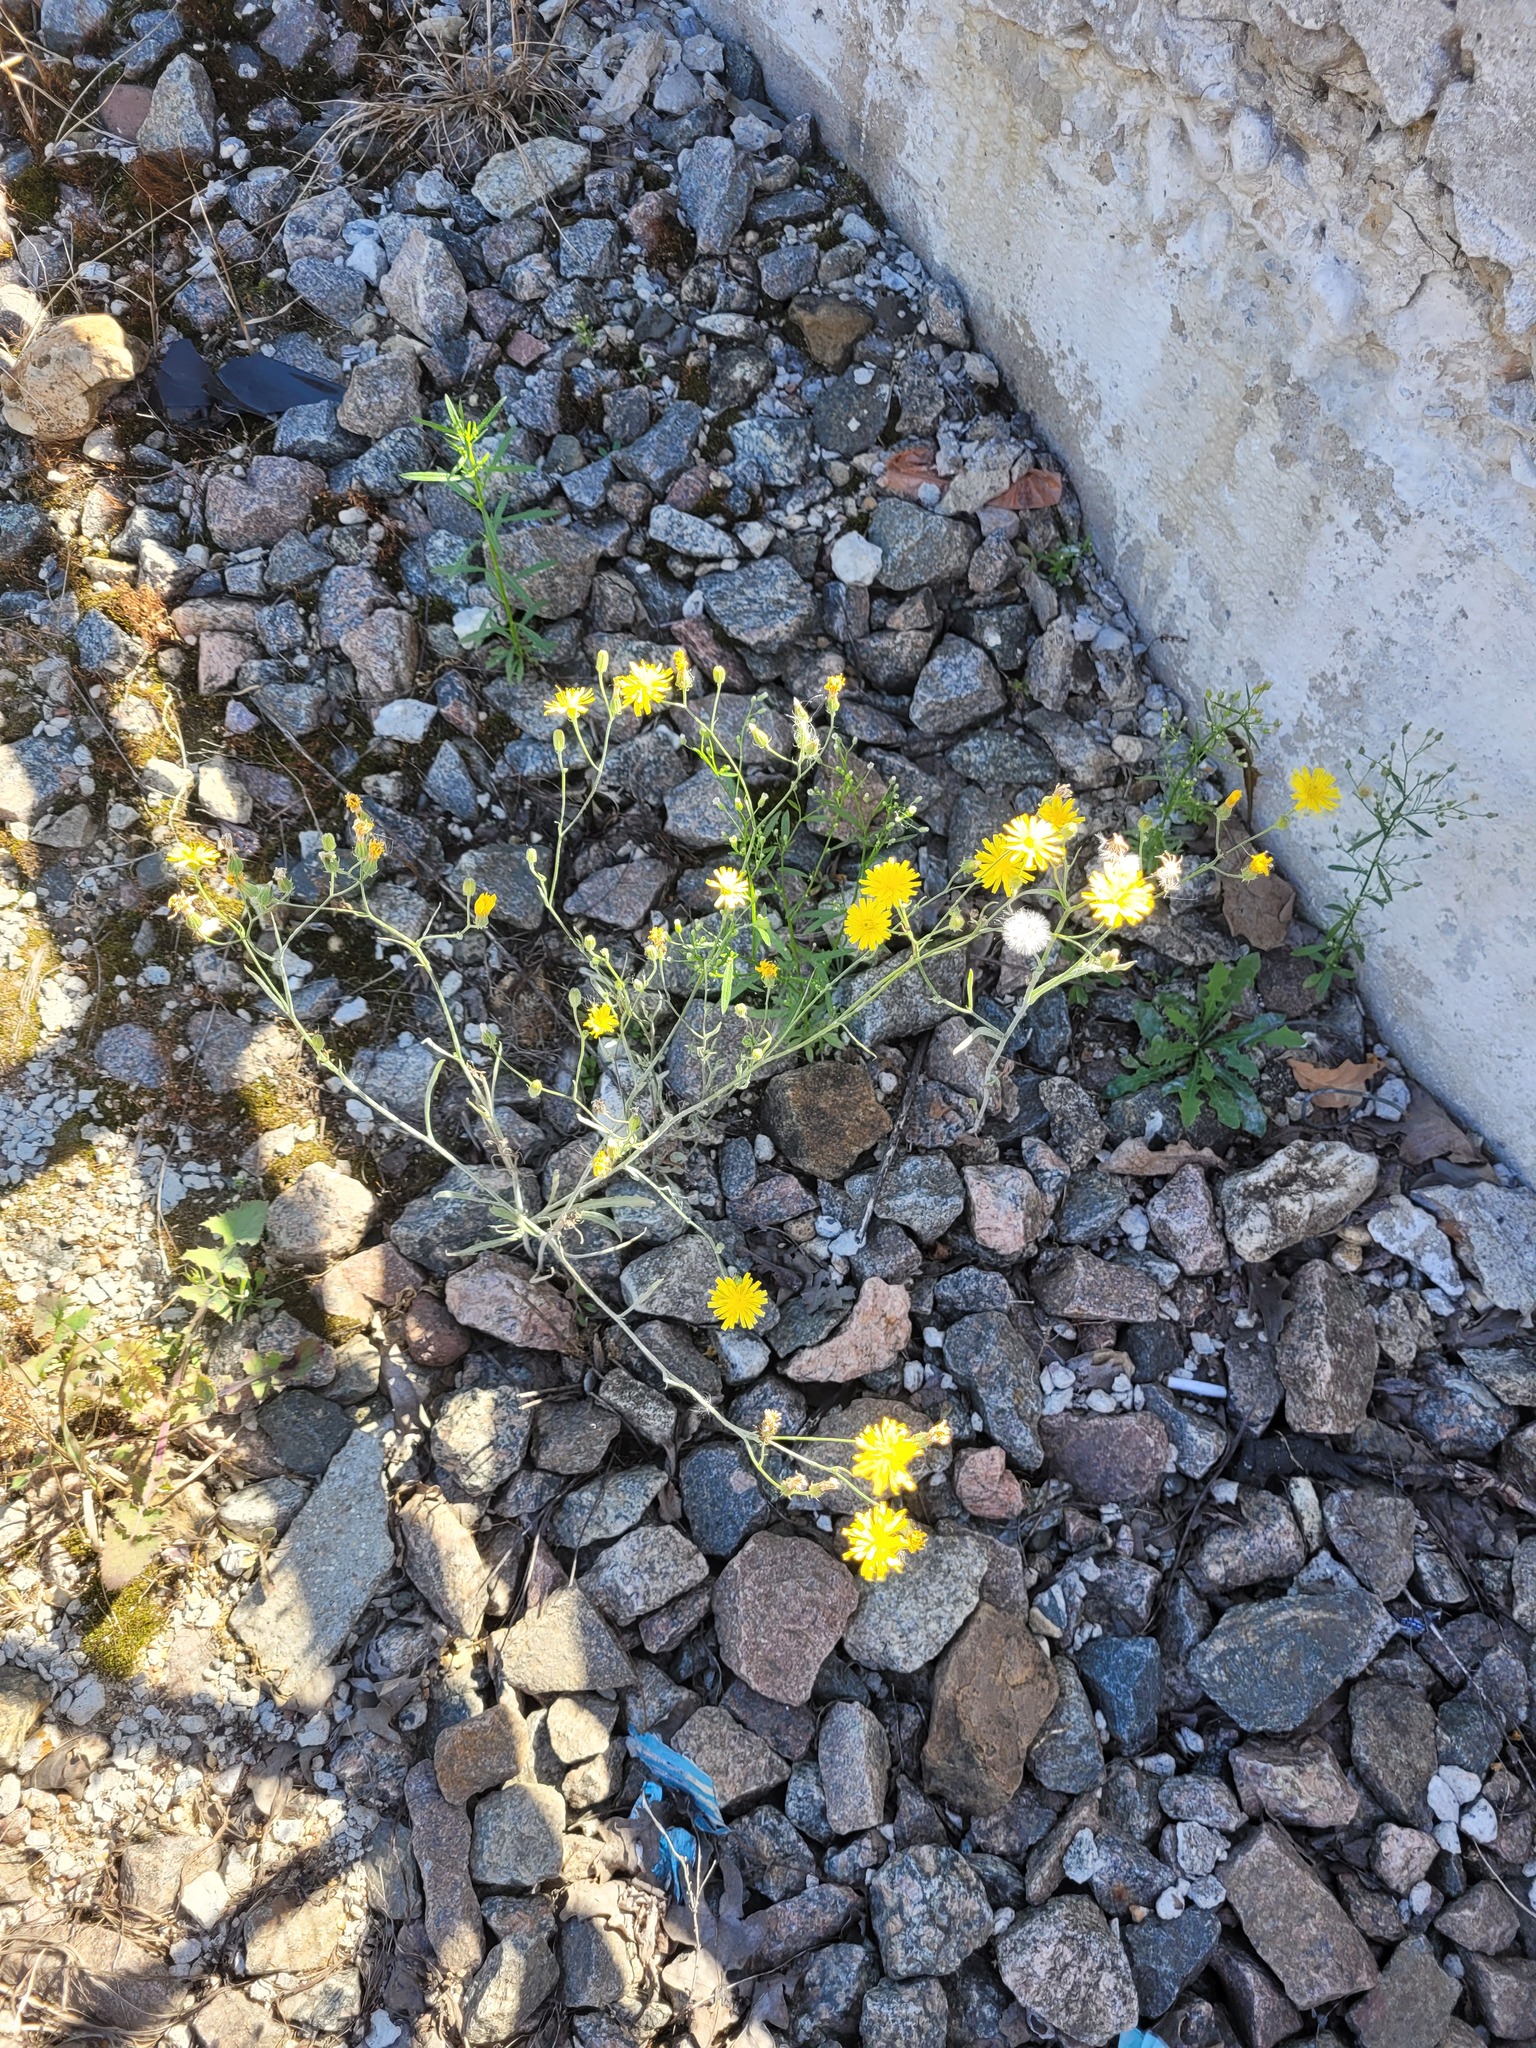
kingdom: Plantae
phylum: Tracheophyta
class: Magnoliopsida
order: Asterales
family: Asteraceae
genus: Crepis
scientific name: Crepis tectorum
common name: Narrow-leaved hawk's-beard
